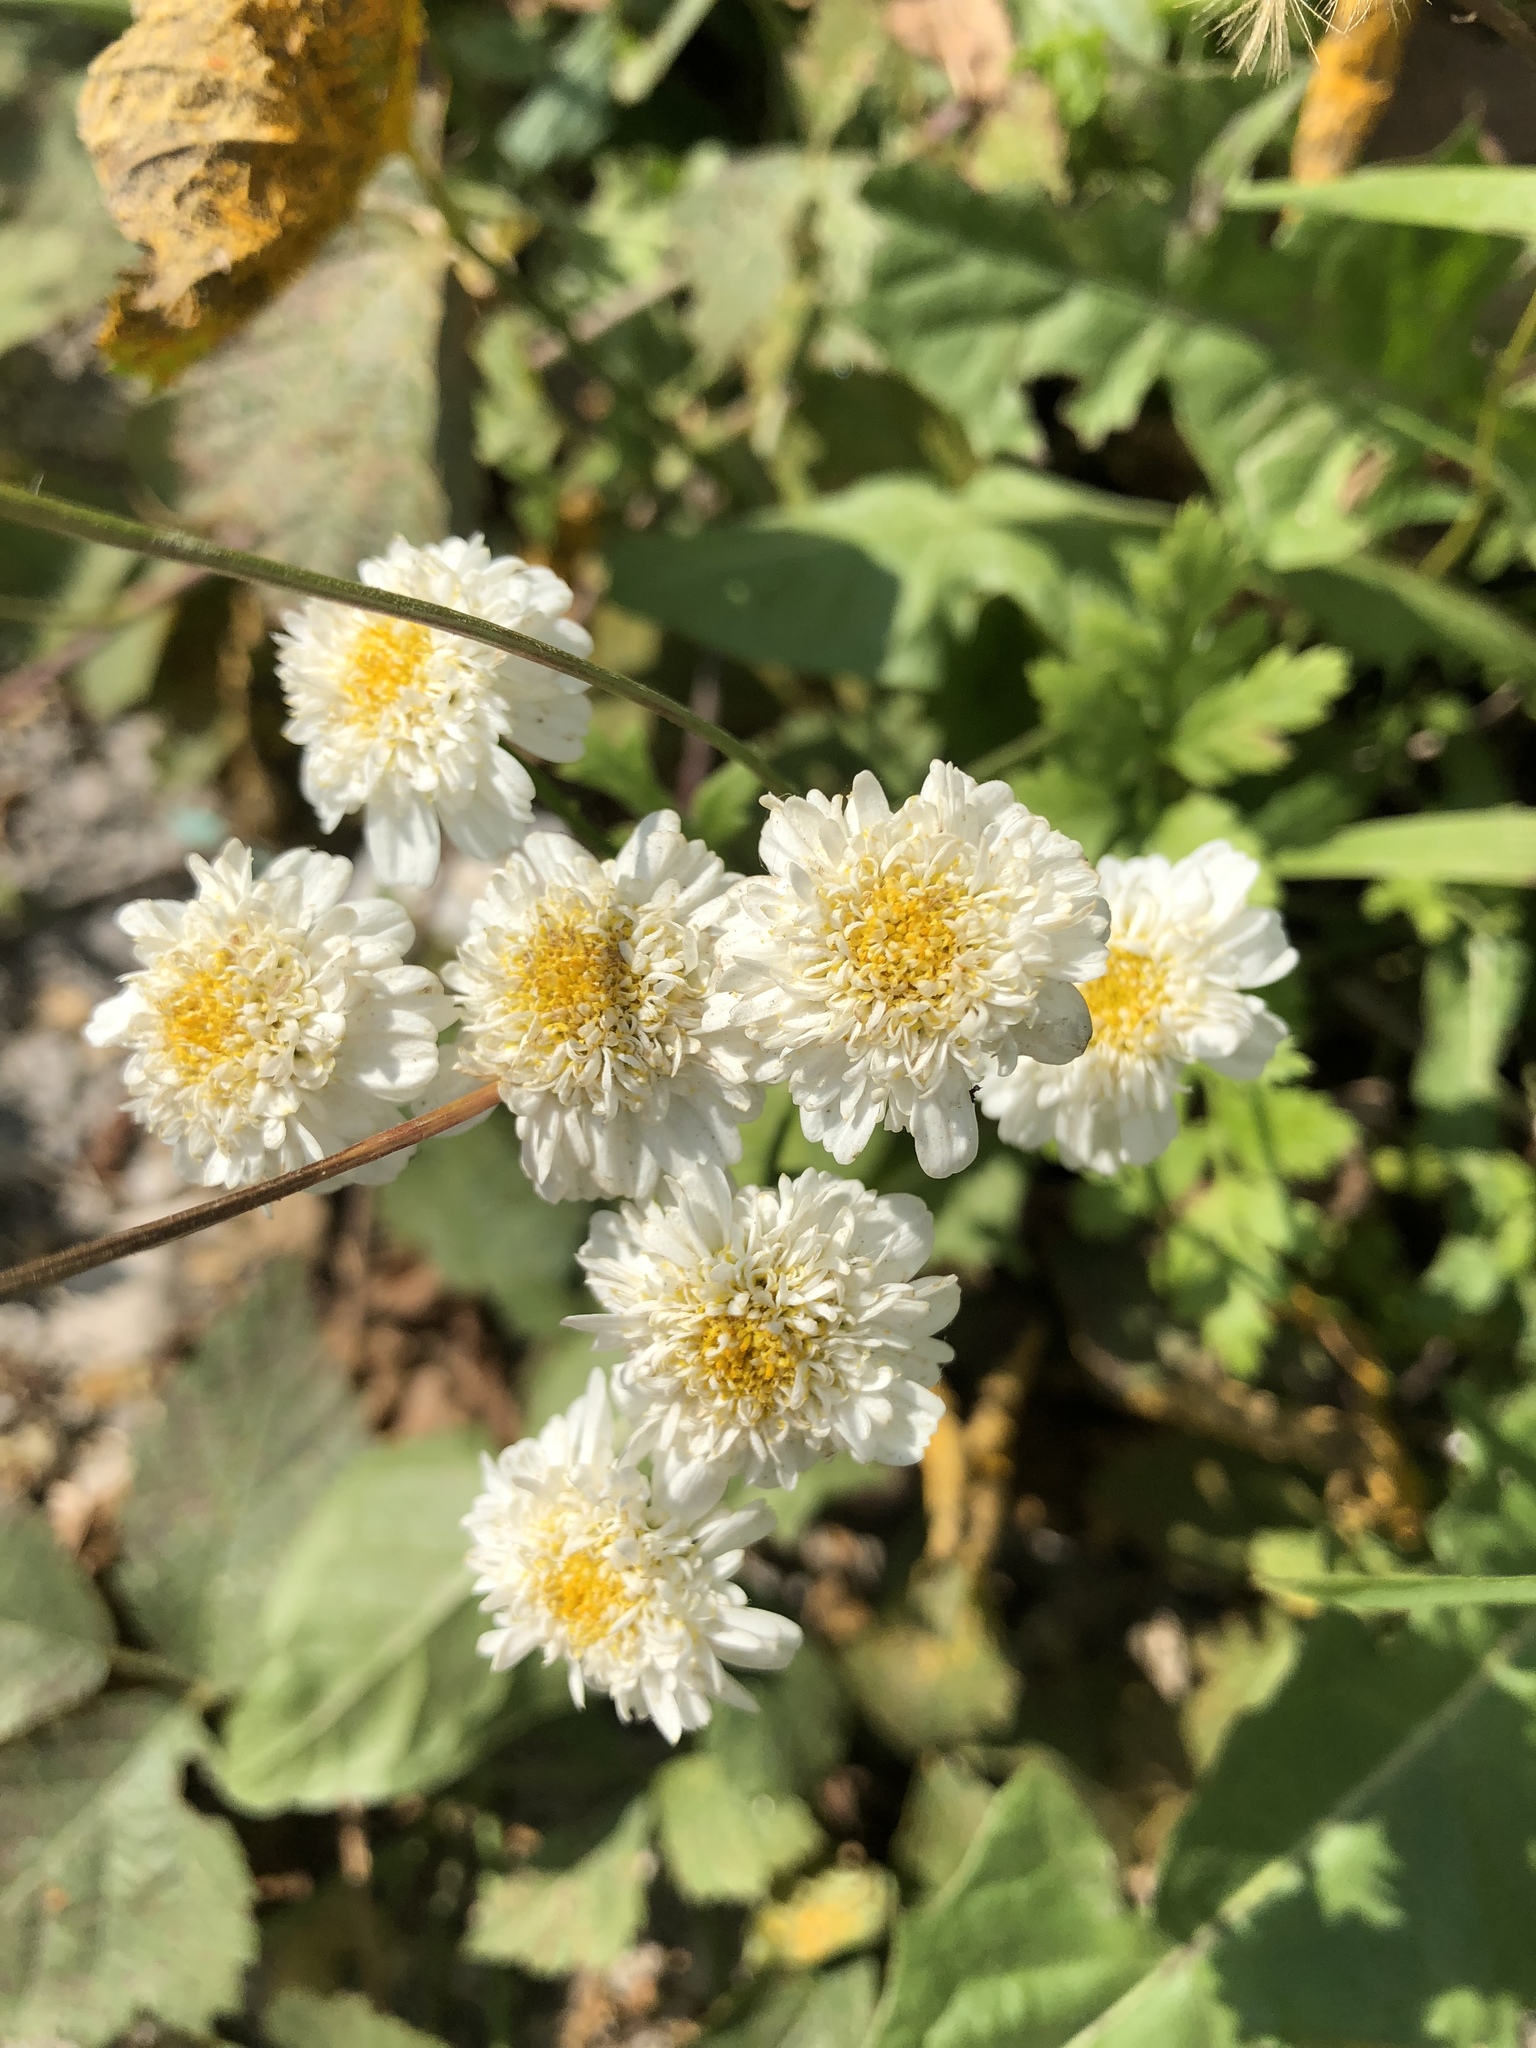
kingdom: Plantae
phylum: Tracheophyta
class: Magnoliopsida
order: Asterales
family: Asteraceae
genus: Tanacetum
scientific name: Tanacetum parthenium
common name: Feverfew
